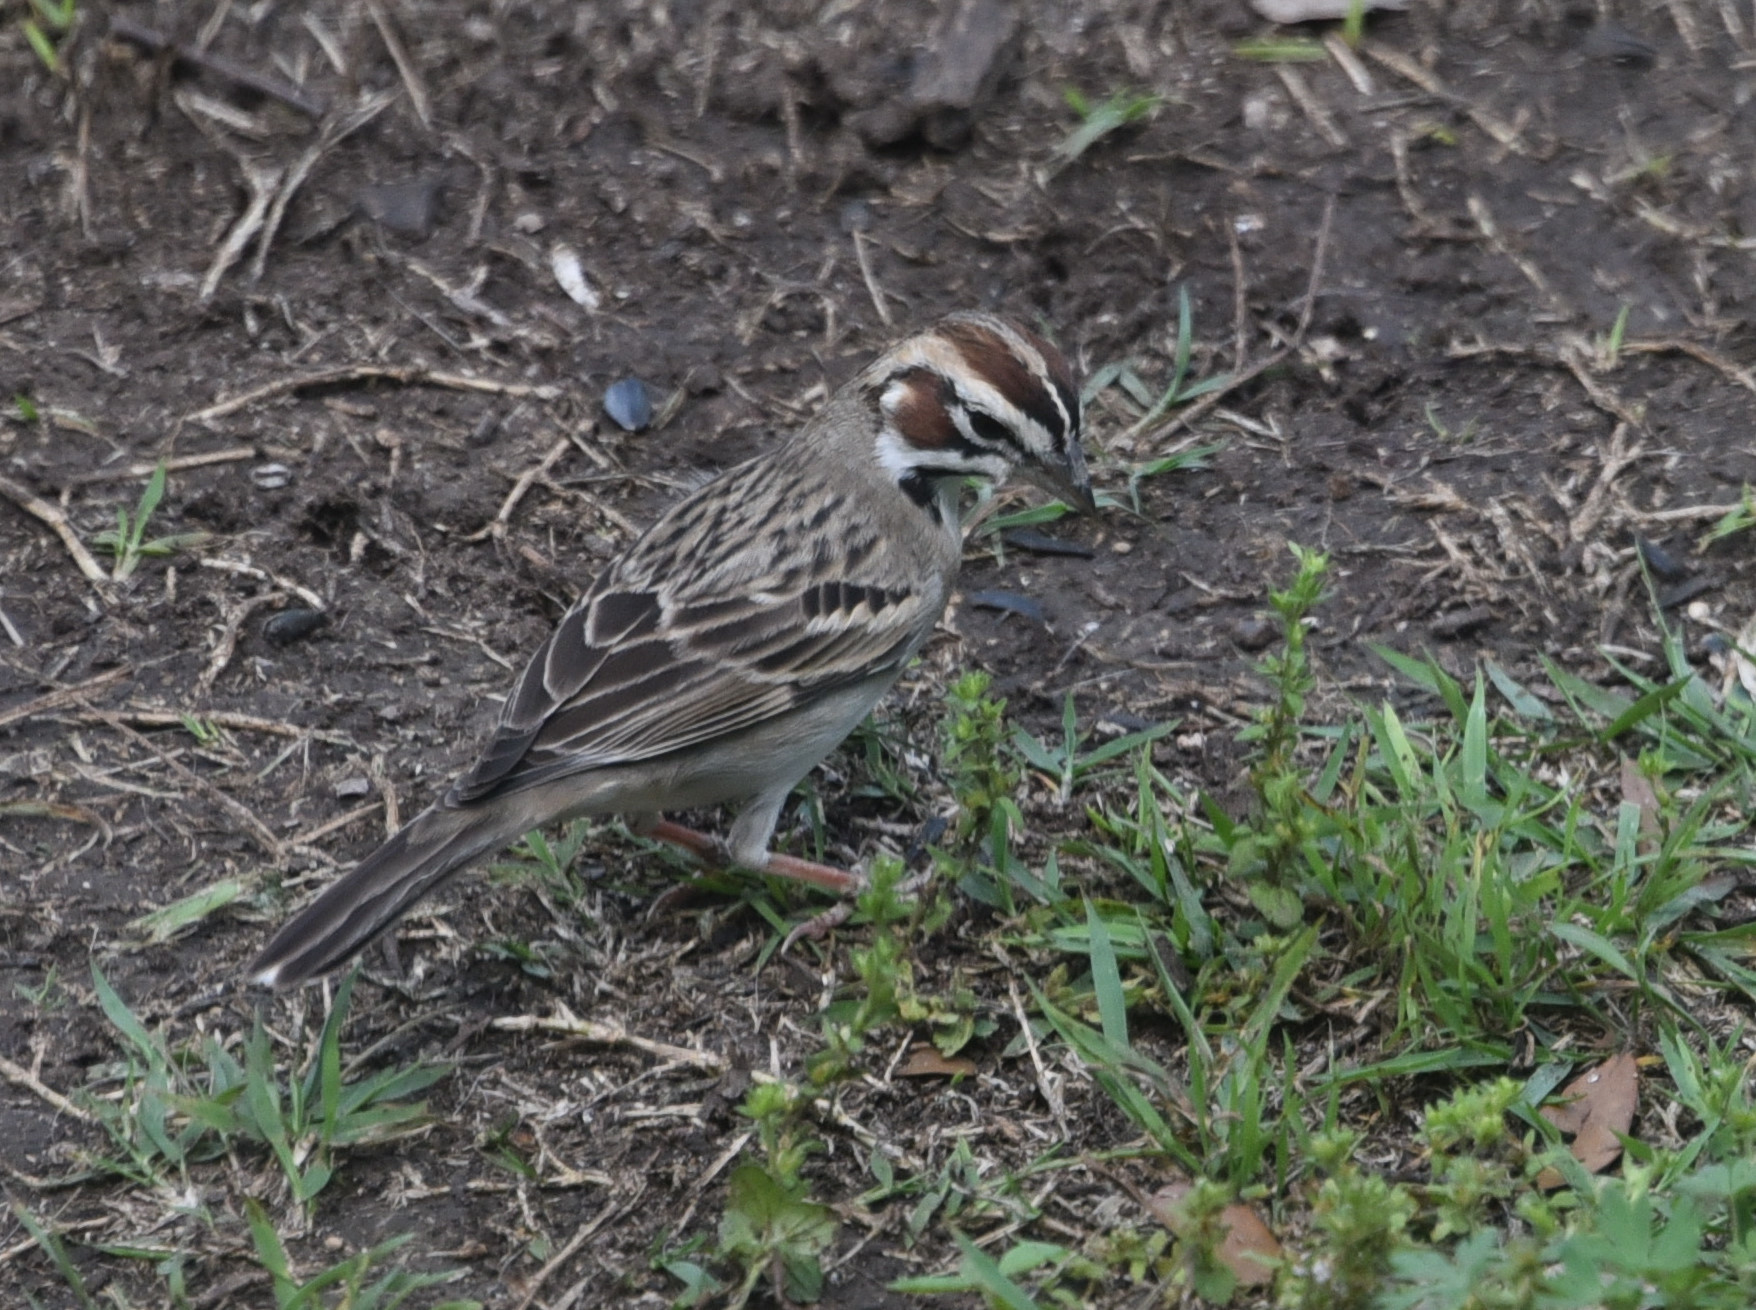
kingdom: Animalia
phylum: Chordata
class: Aves
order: Passeriformes
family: Passerellidae
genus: Chondestes
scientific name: Chondestes grammacus
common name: Lark sparrow
